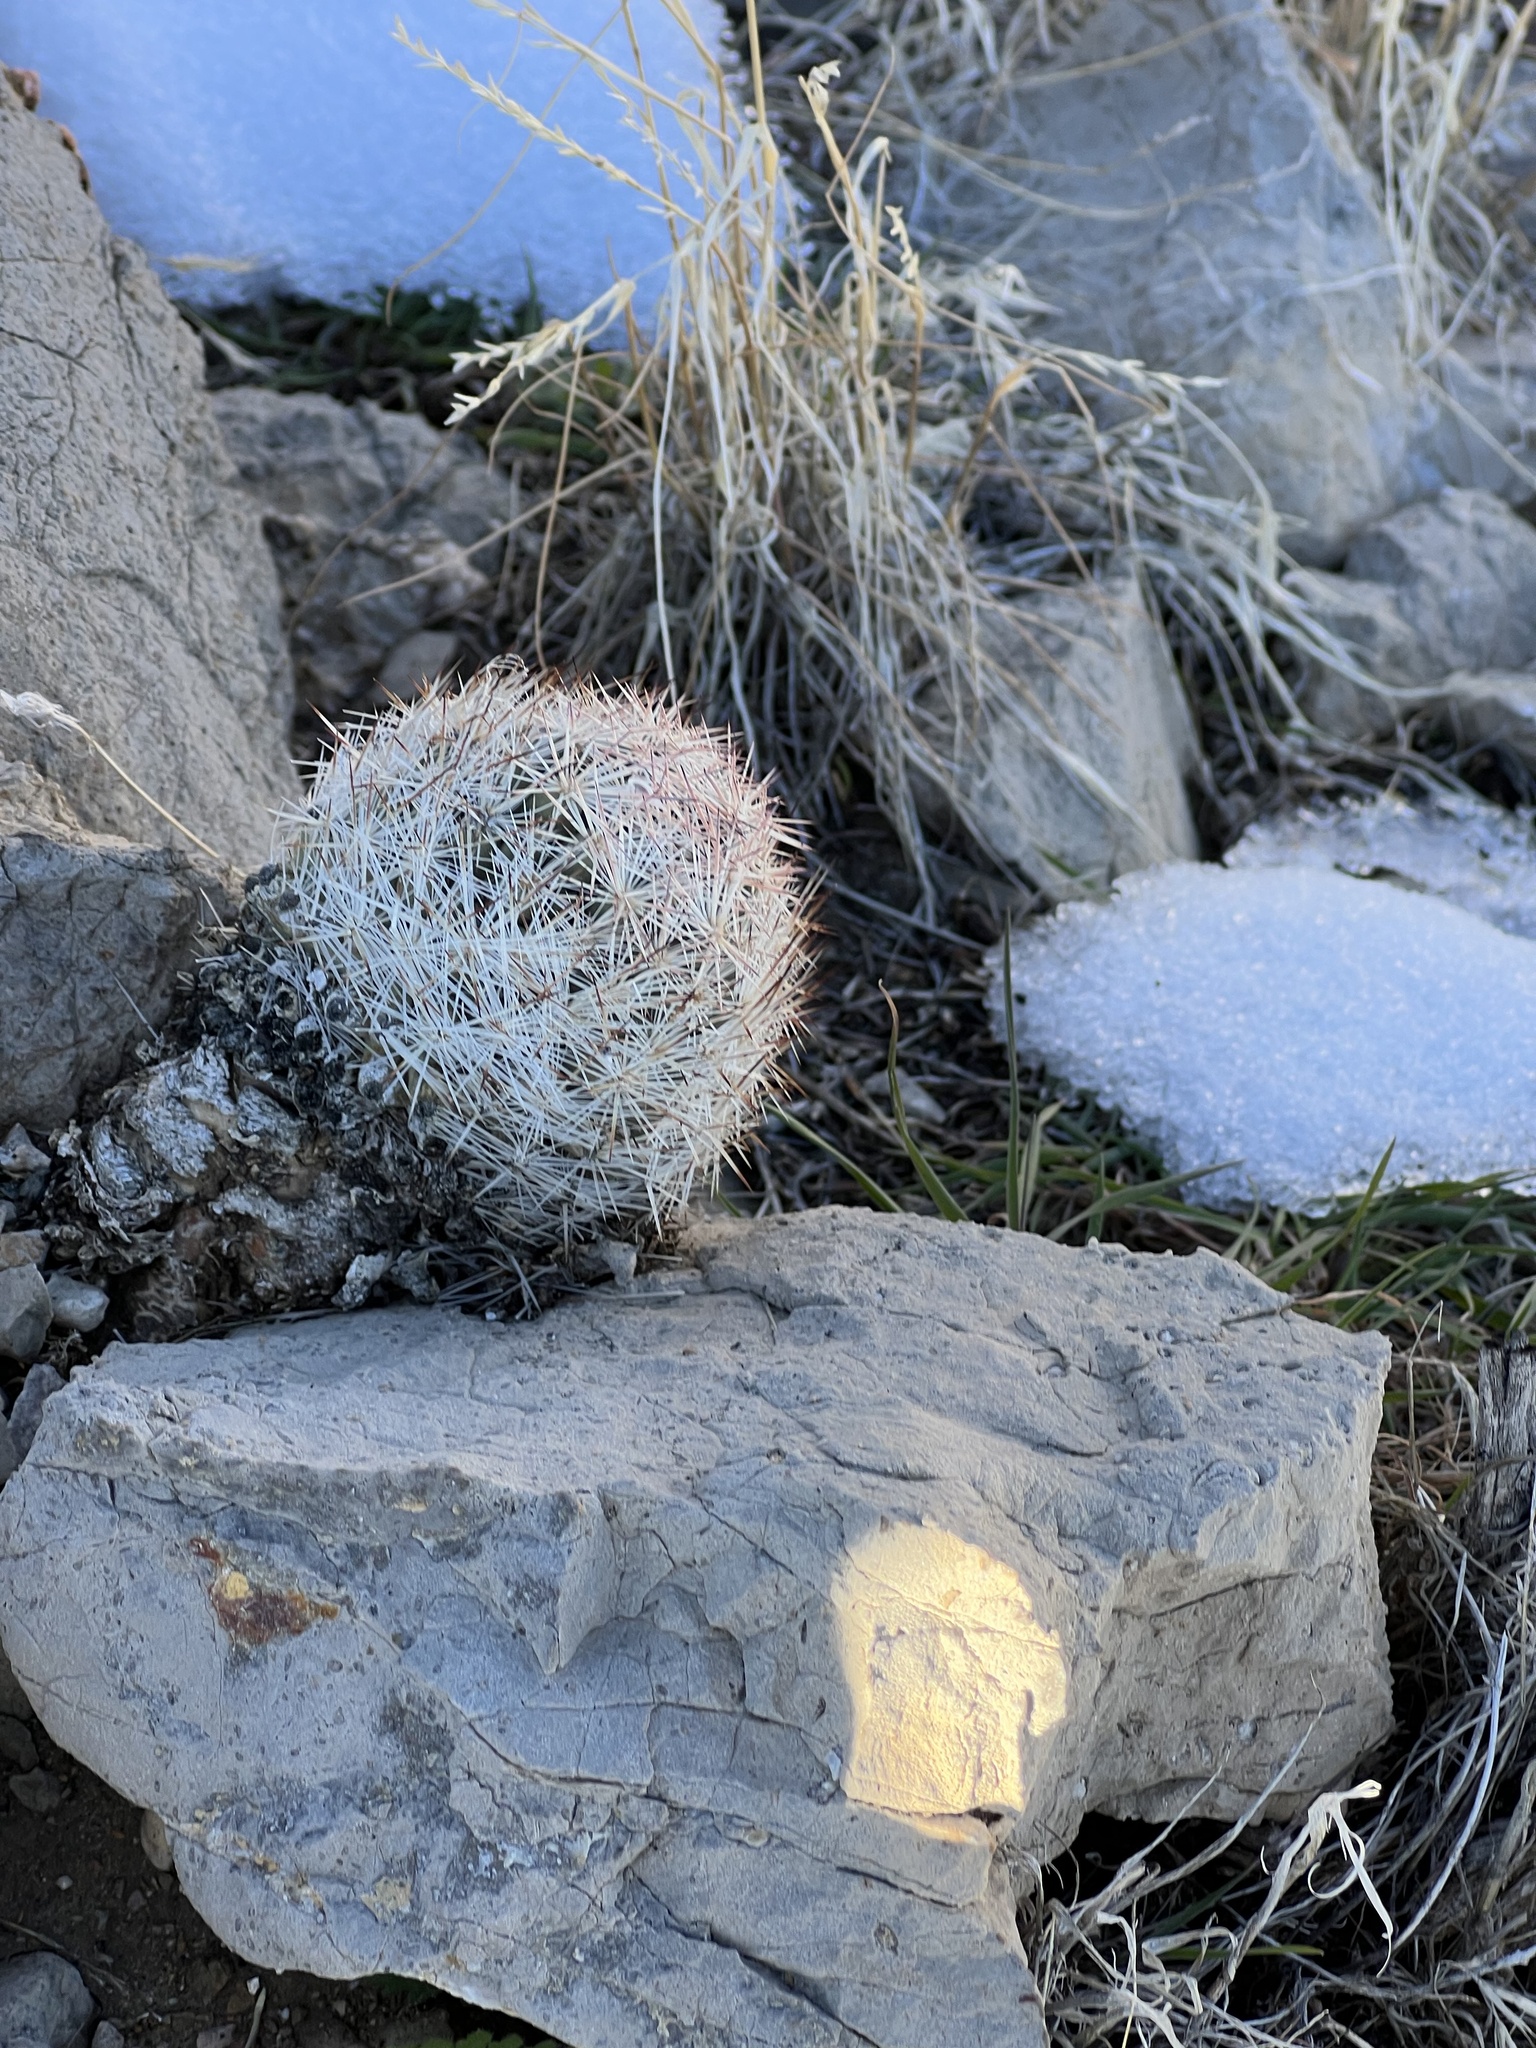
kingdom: Plantae
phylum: Tracheophyta
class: Magnoliopsida
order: Caryophyllales
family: Cactaceae
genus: Pelecyphora
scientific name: Pelecyphora dasyacantha
